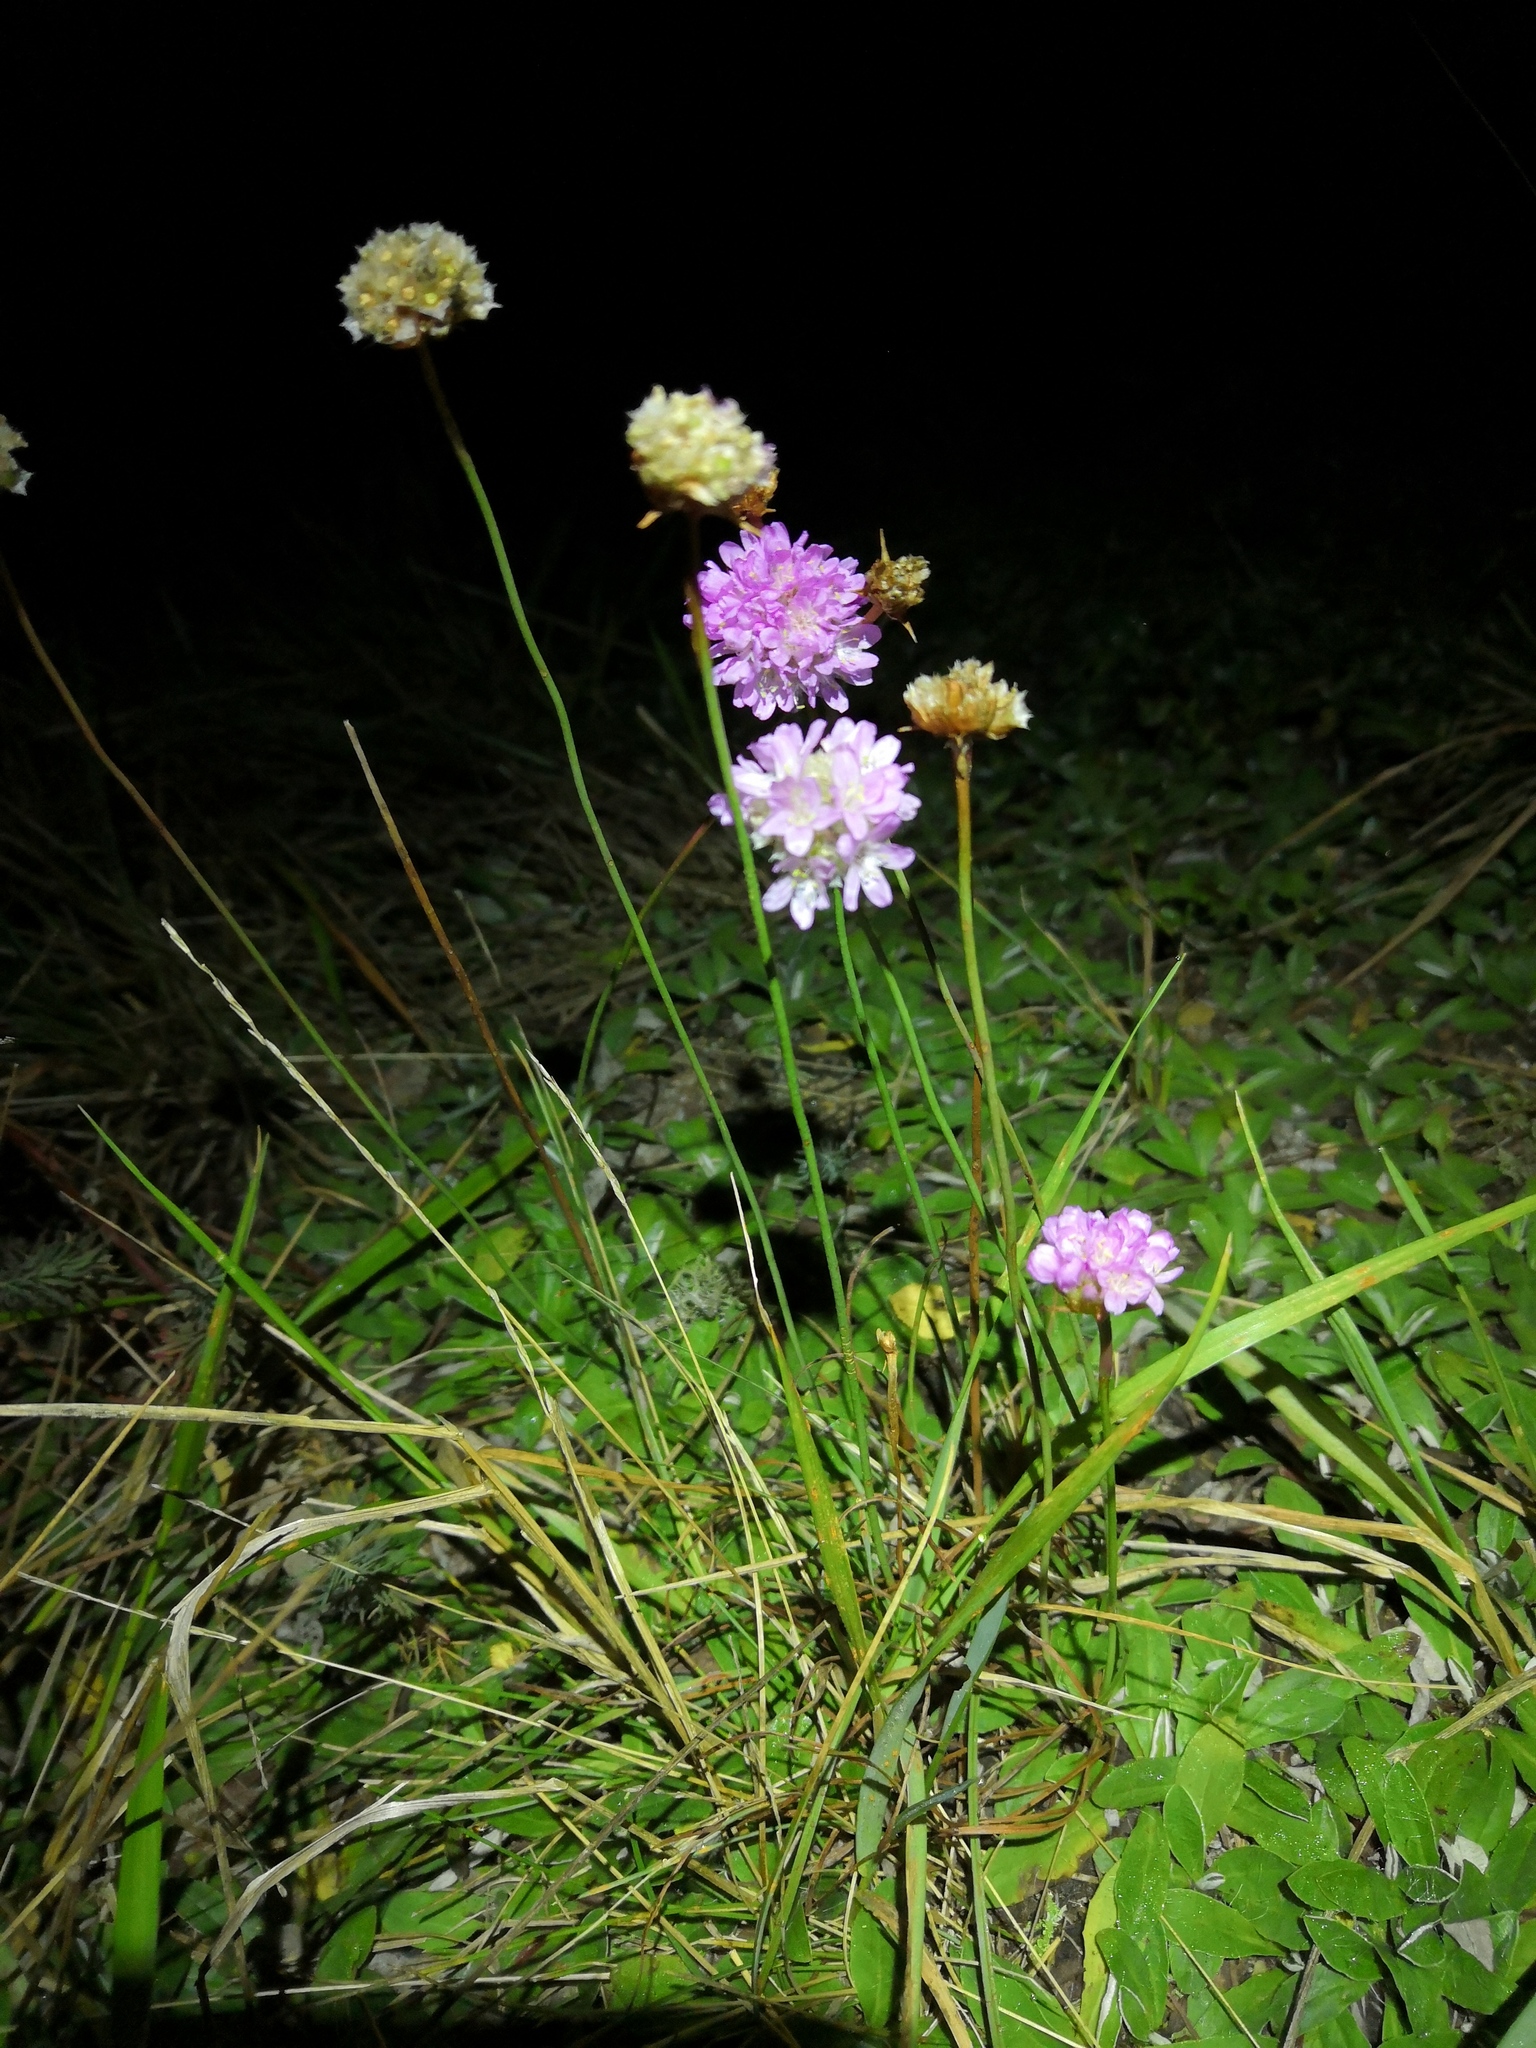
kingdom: Plantae
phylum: Tracheophyta
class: Magnoliopsida
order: Caryophyllales
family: Plumbaginaceae
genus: Armeria
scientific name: Armeria maritima
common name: Thrift
